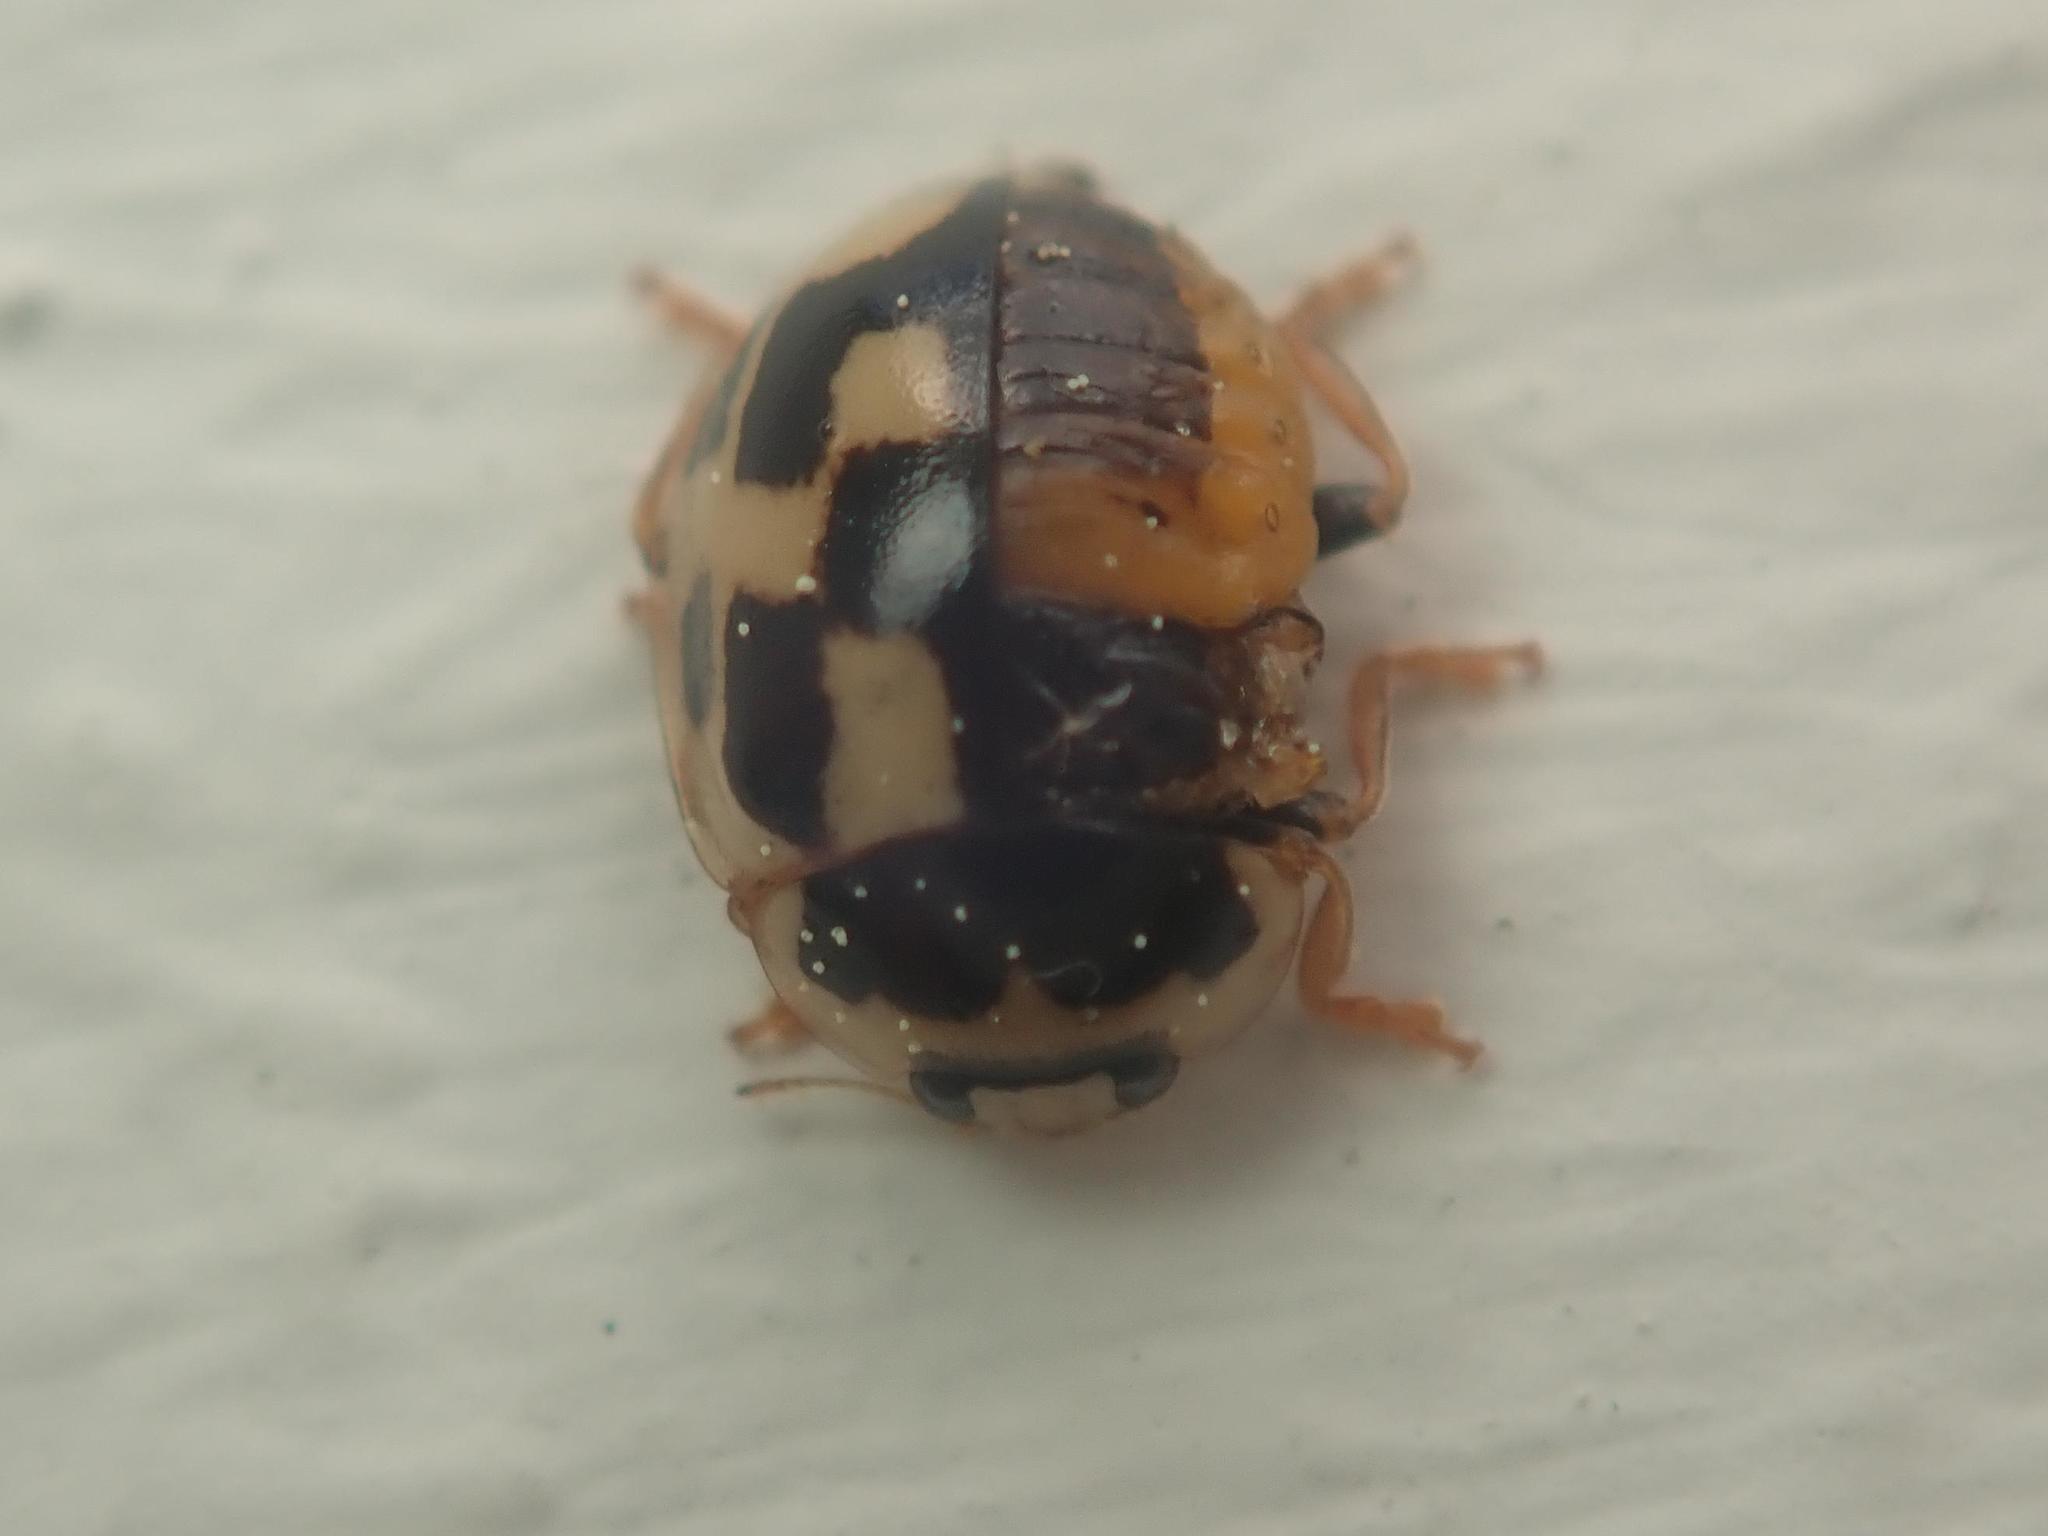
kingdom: Animalia
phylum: Arthropoda
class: Insecta
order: Coleoptera
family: Coccinellidae
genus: Propylaea
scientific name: Propylaea quatuordecimpunctata
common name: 14-spotted ladybird beetle
